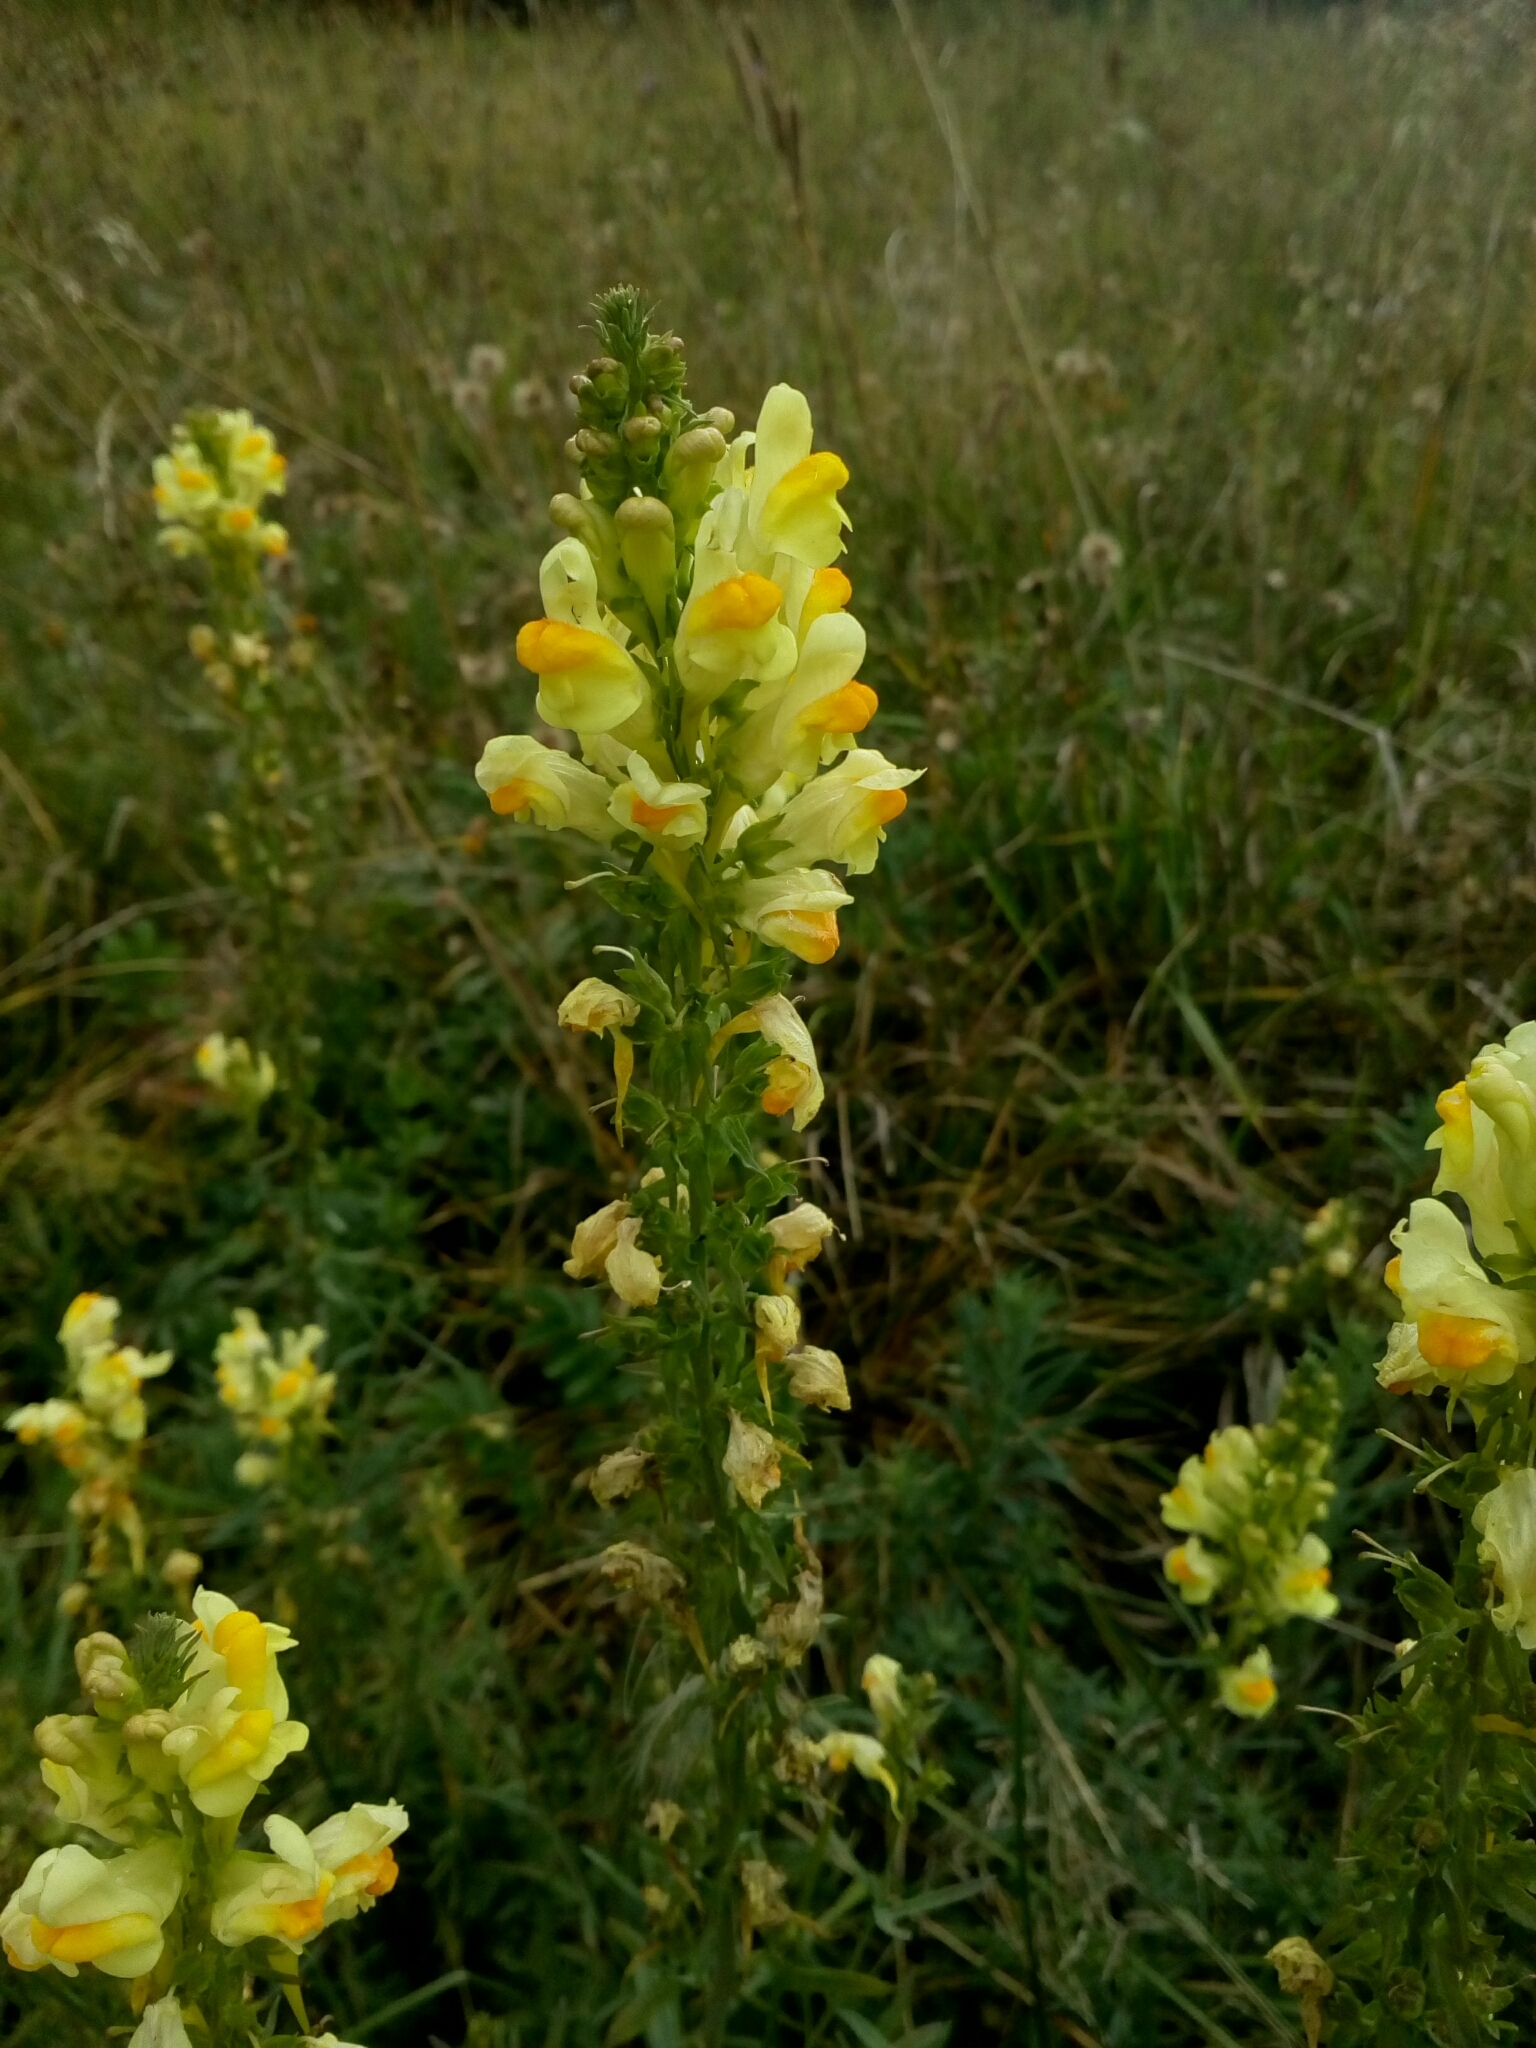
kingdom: Plantae
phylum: Tracheophyta
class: Magnoliopsida
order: Lamiales
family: Plantaginaceae
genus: Linaria
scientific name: Linaria vulgaris
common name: Butter and eggs
